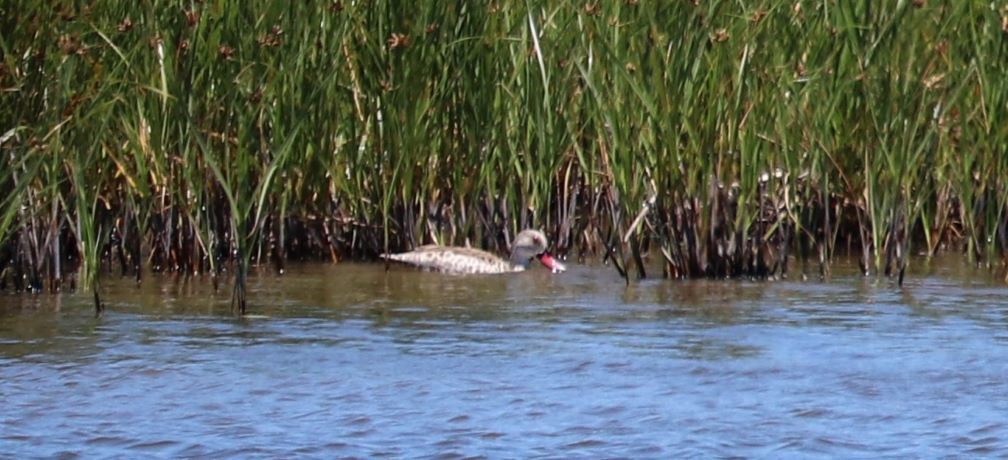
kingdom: Animalia
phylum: Chordata
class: Aves
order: Anseriformes
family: Anatidae
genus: Anas
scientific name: Anas capensis
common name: Cape teal
